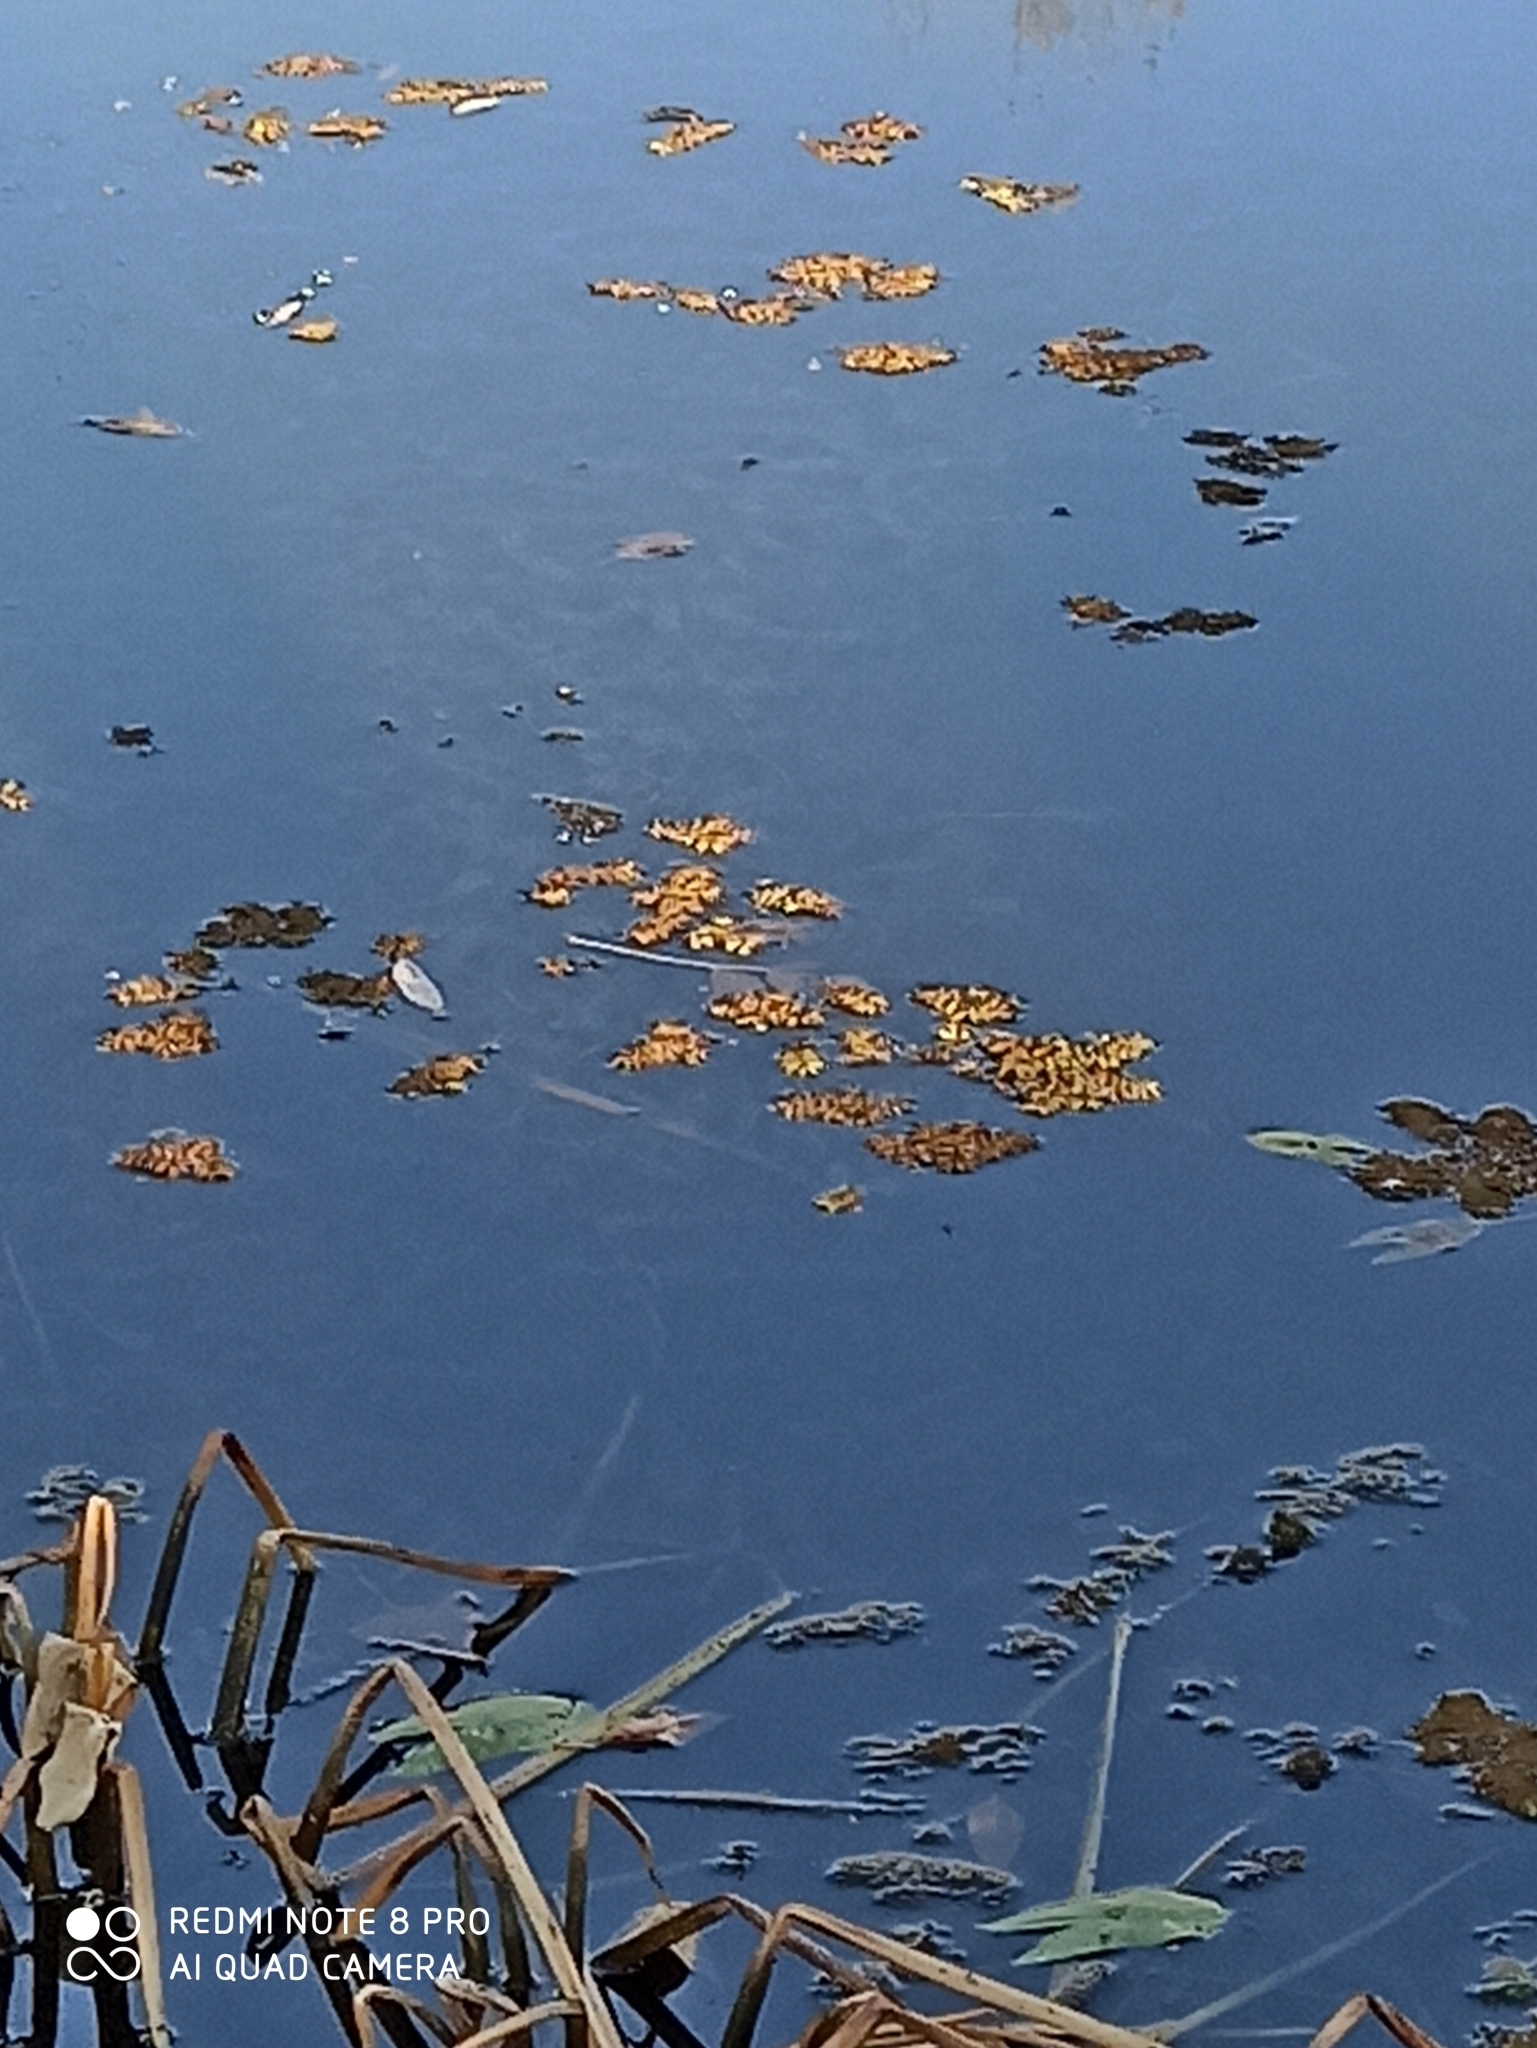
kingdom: Plantae
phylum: Tracheophyta
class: Polypodiopsida
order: Salviniales
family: Salviniaceae
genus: Salvinia
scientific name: Salvinia natans
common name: Floating fern
